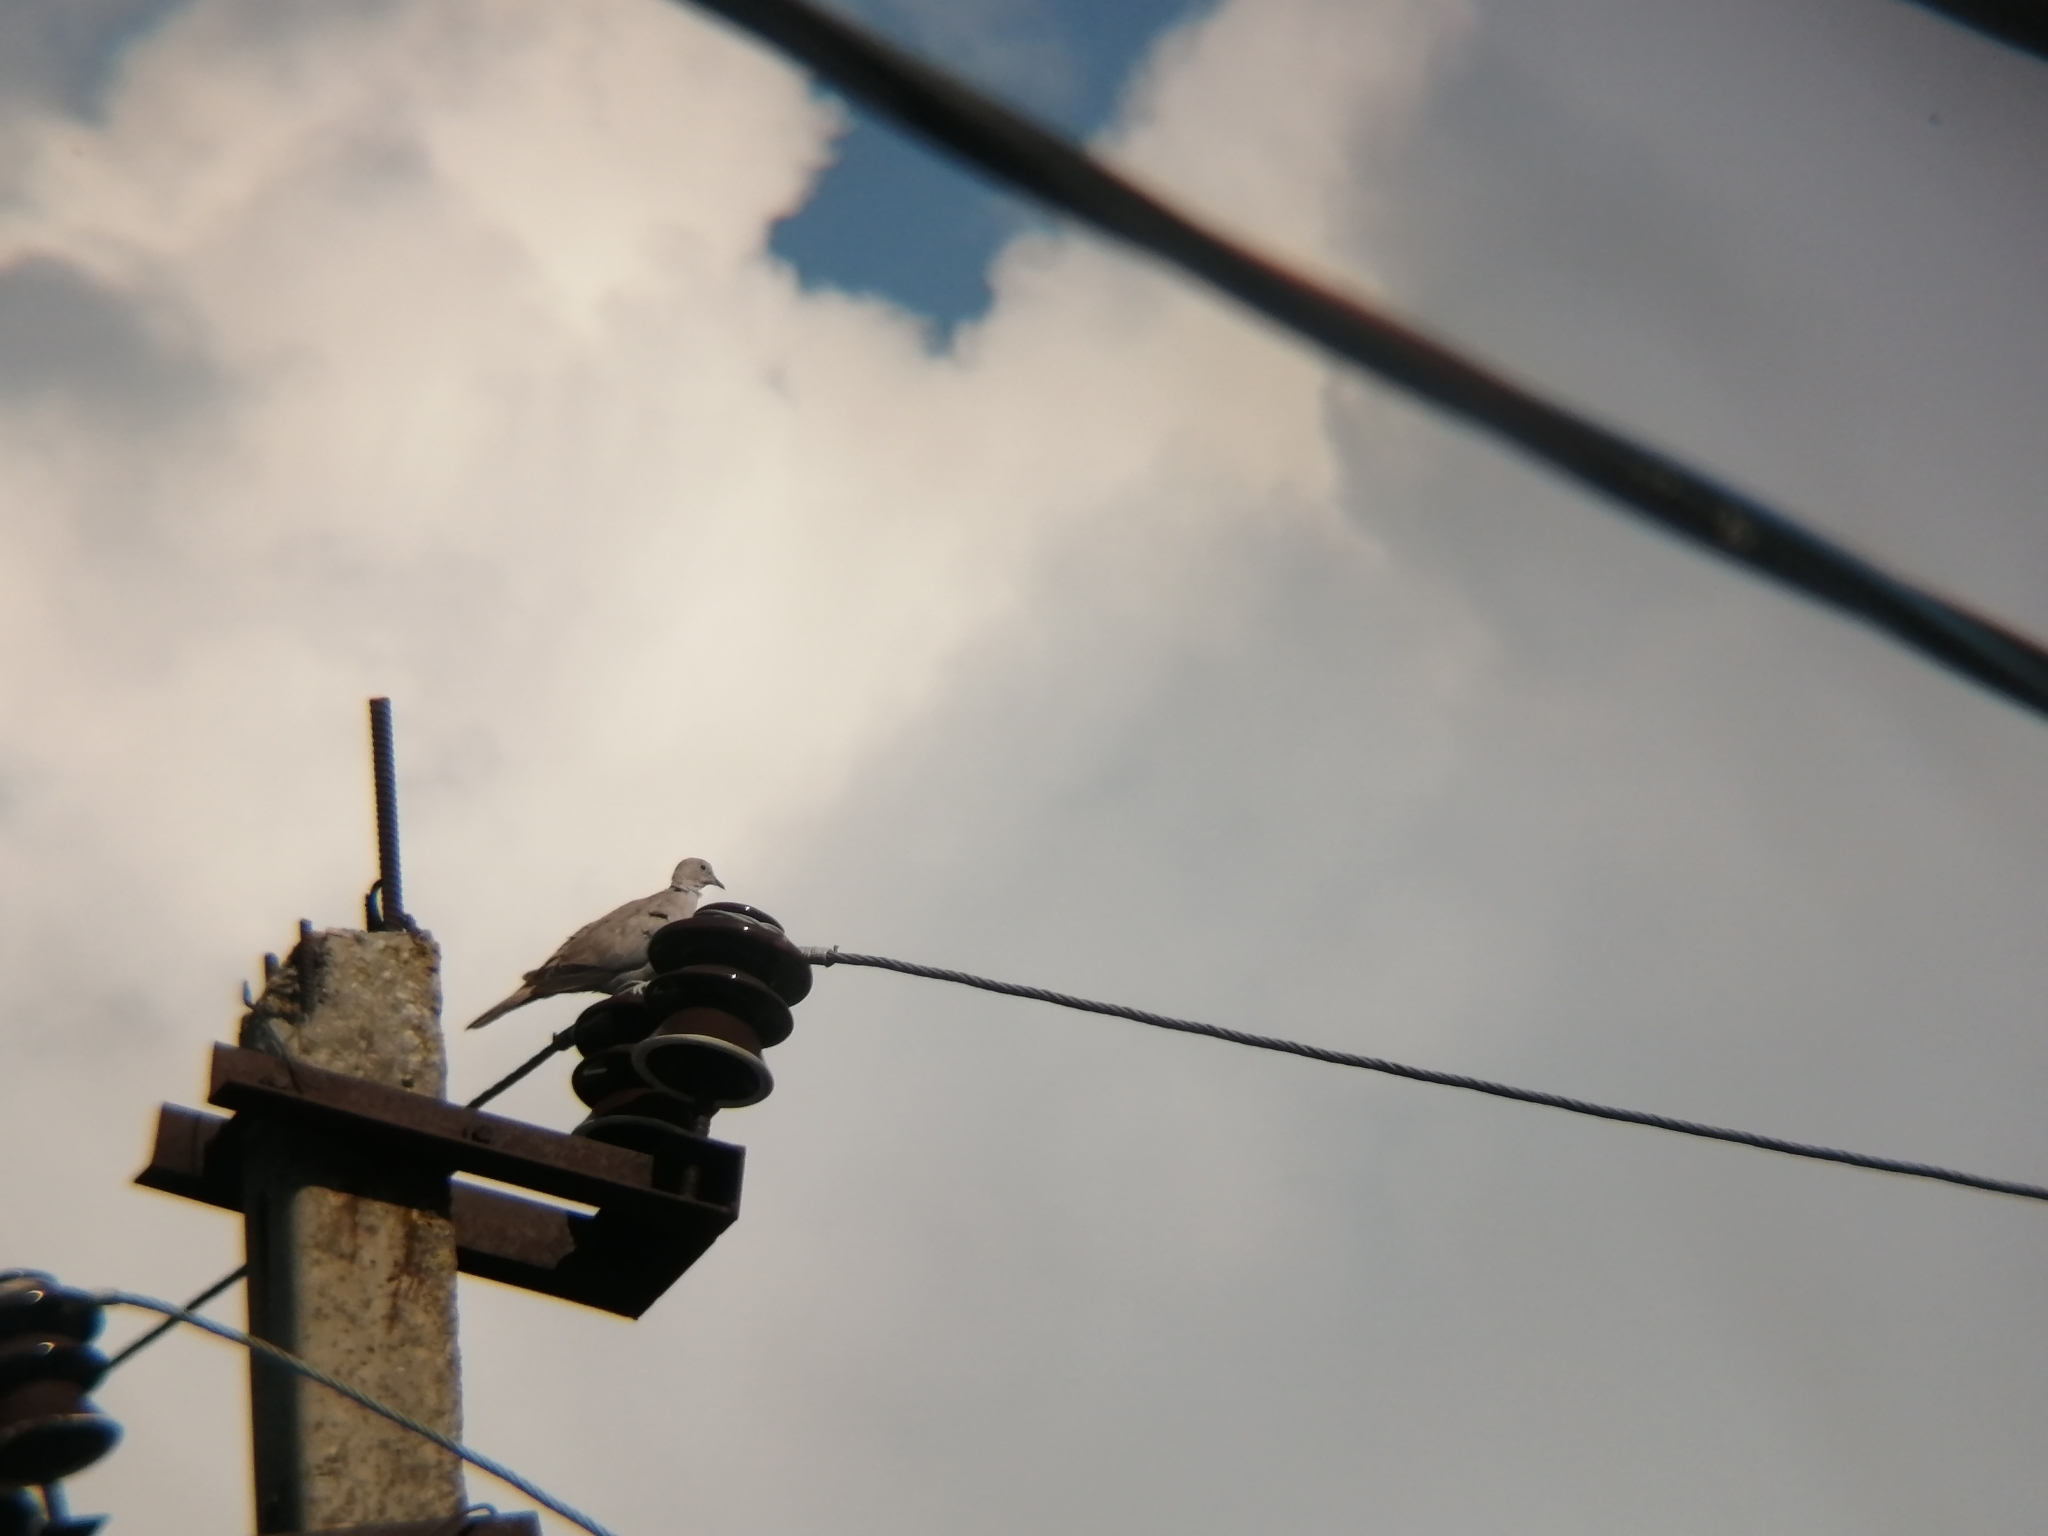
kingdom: Animalia
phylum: Chordata
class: Aves
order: Columbiformes
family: Columbidae
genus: Streptopelia
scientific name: Streptopelia decaocto
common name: Eurasian collared dove
